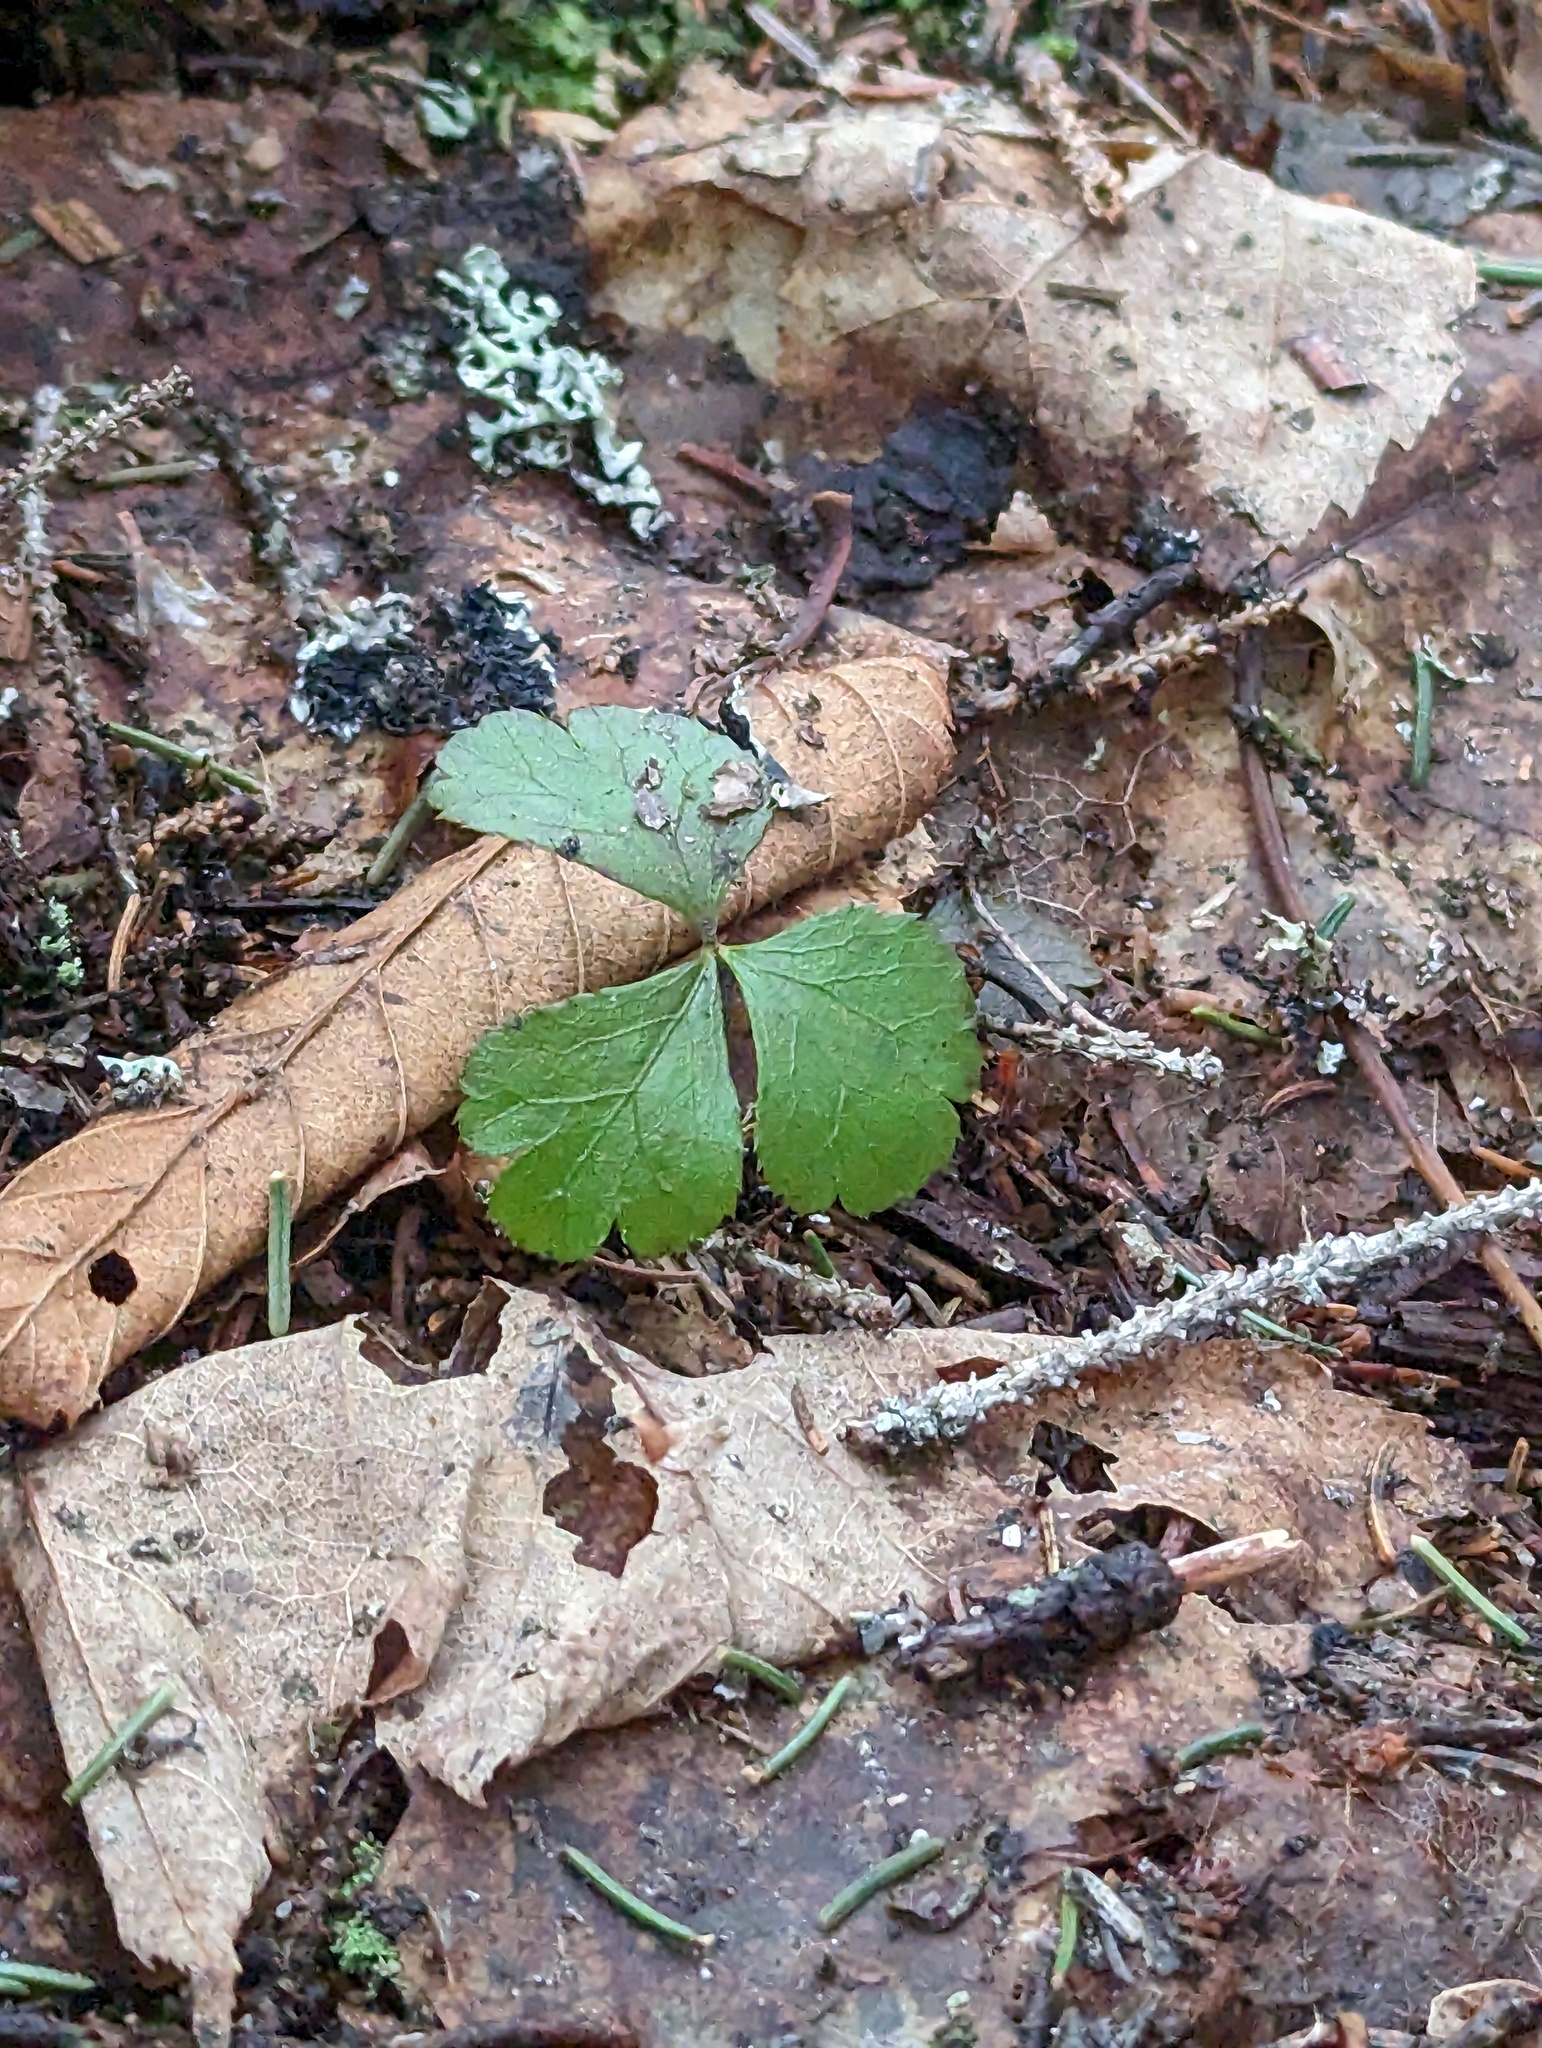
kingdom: Plantae
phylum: Tracheophyta
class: Magnoliopsida
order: Ranunculales
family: Ranunculaceae
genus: Coptis
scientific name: Coptis trifolia
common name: Canker-root
